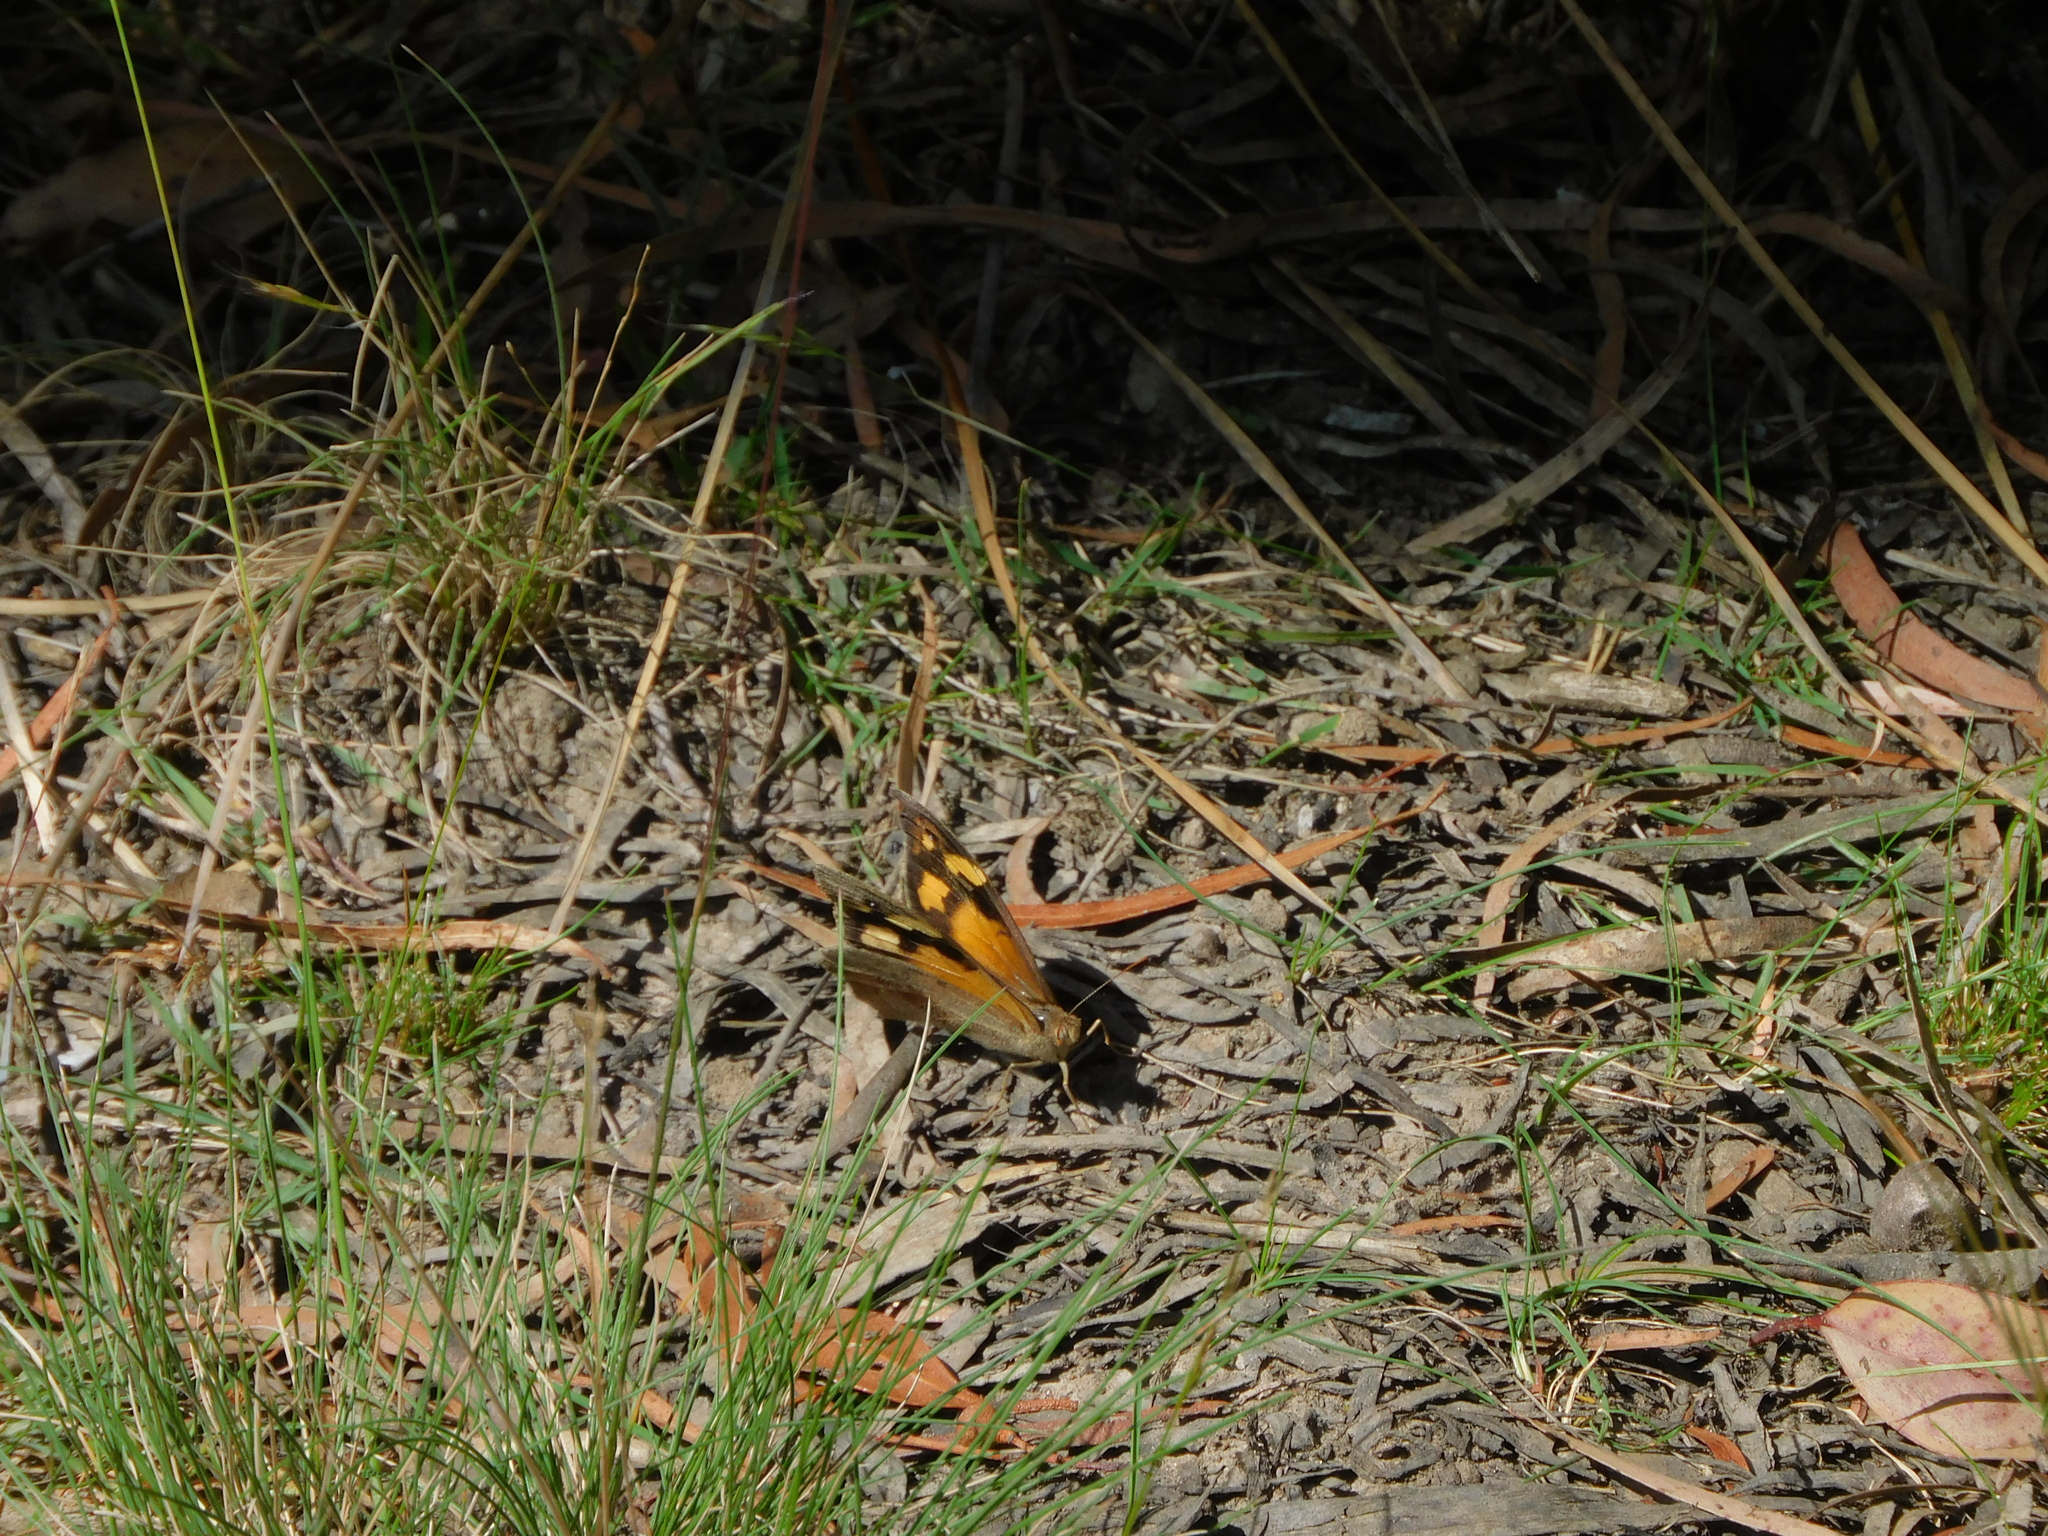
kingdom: Animalia
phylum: Arthropoda
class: Insecta
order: Lepidoptera
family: Nymphalidae
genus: Heteronympha
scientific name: Heteronympha merope
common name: Common brown
